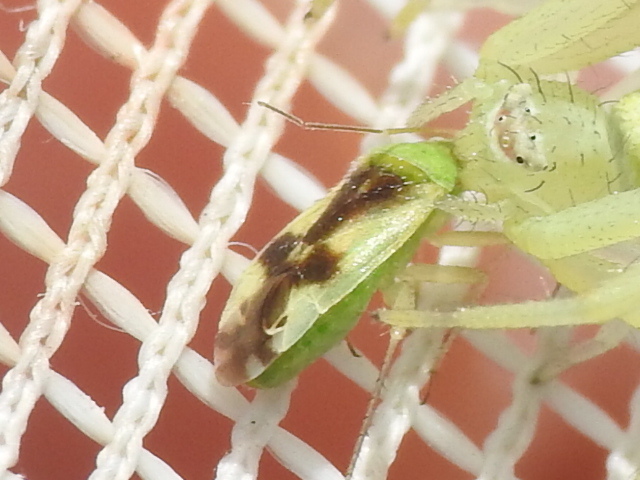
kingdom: Animalia
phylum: Arthropoda
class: Insecta
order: Hemiptera
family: Miridae
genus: Reuteroscopus
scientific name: Reuteroscopus ornatus
